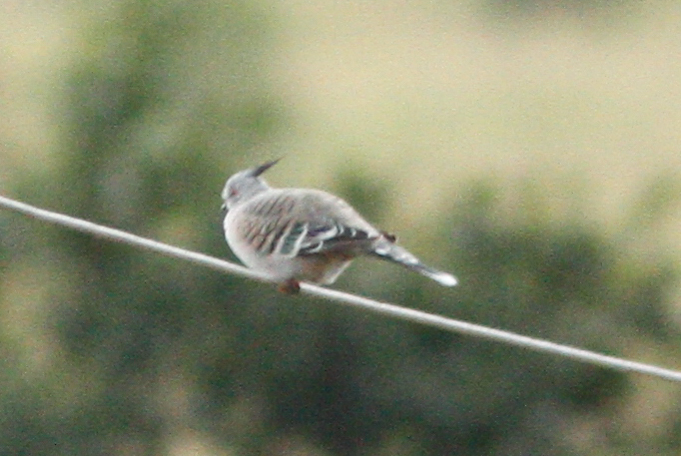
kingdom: Animalia
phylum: Chordata
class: Aves
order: Columbiformes
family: Columbidae
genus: Ocyphaps
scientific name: Ocyphaps lophotes
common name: Crested pigeon
